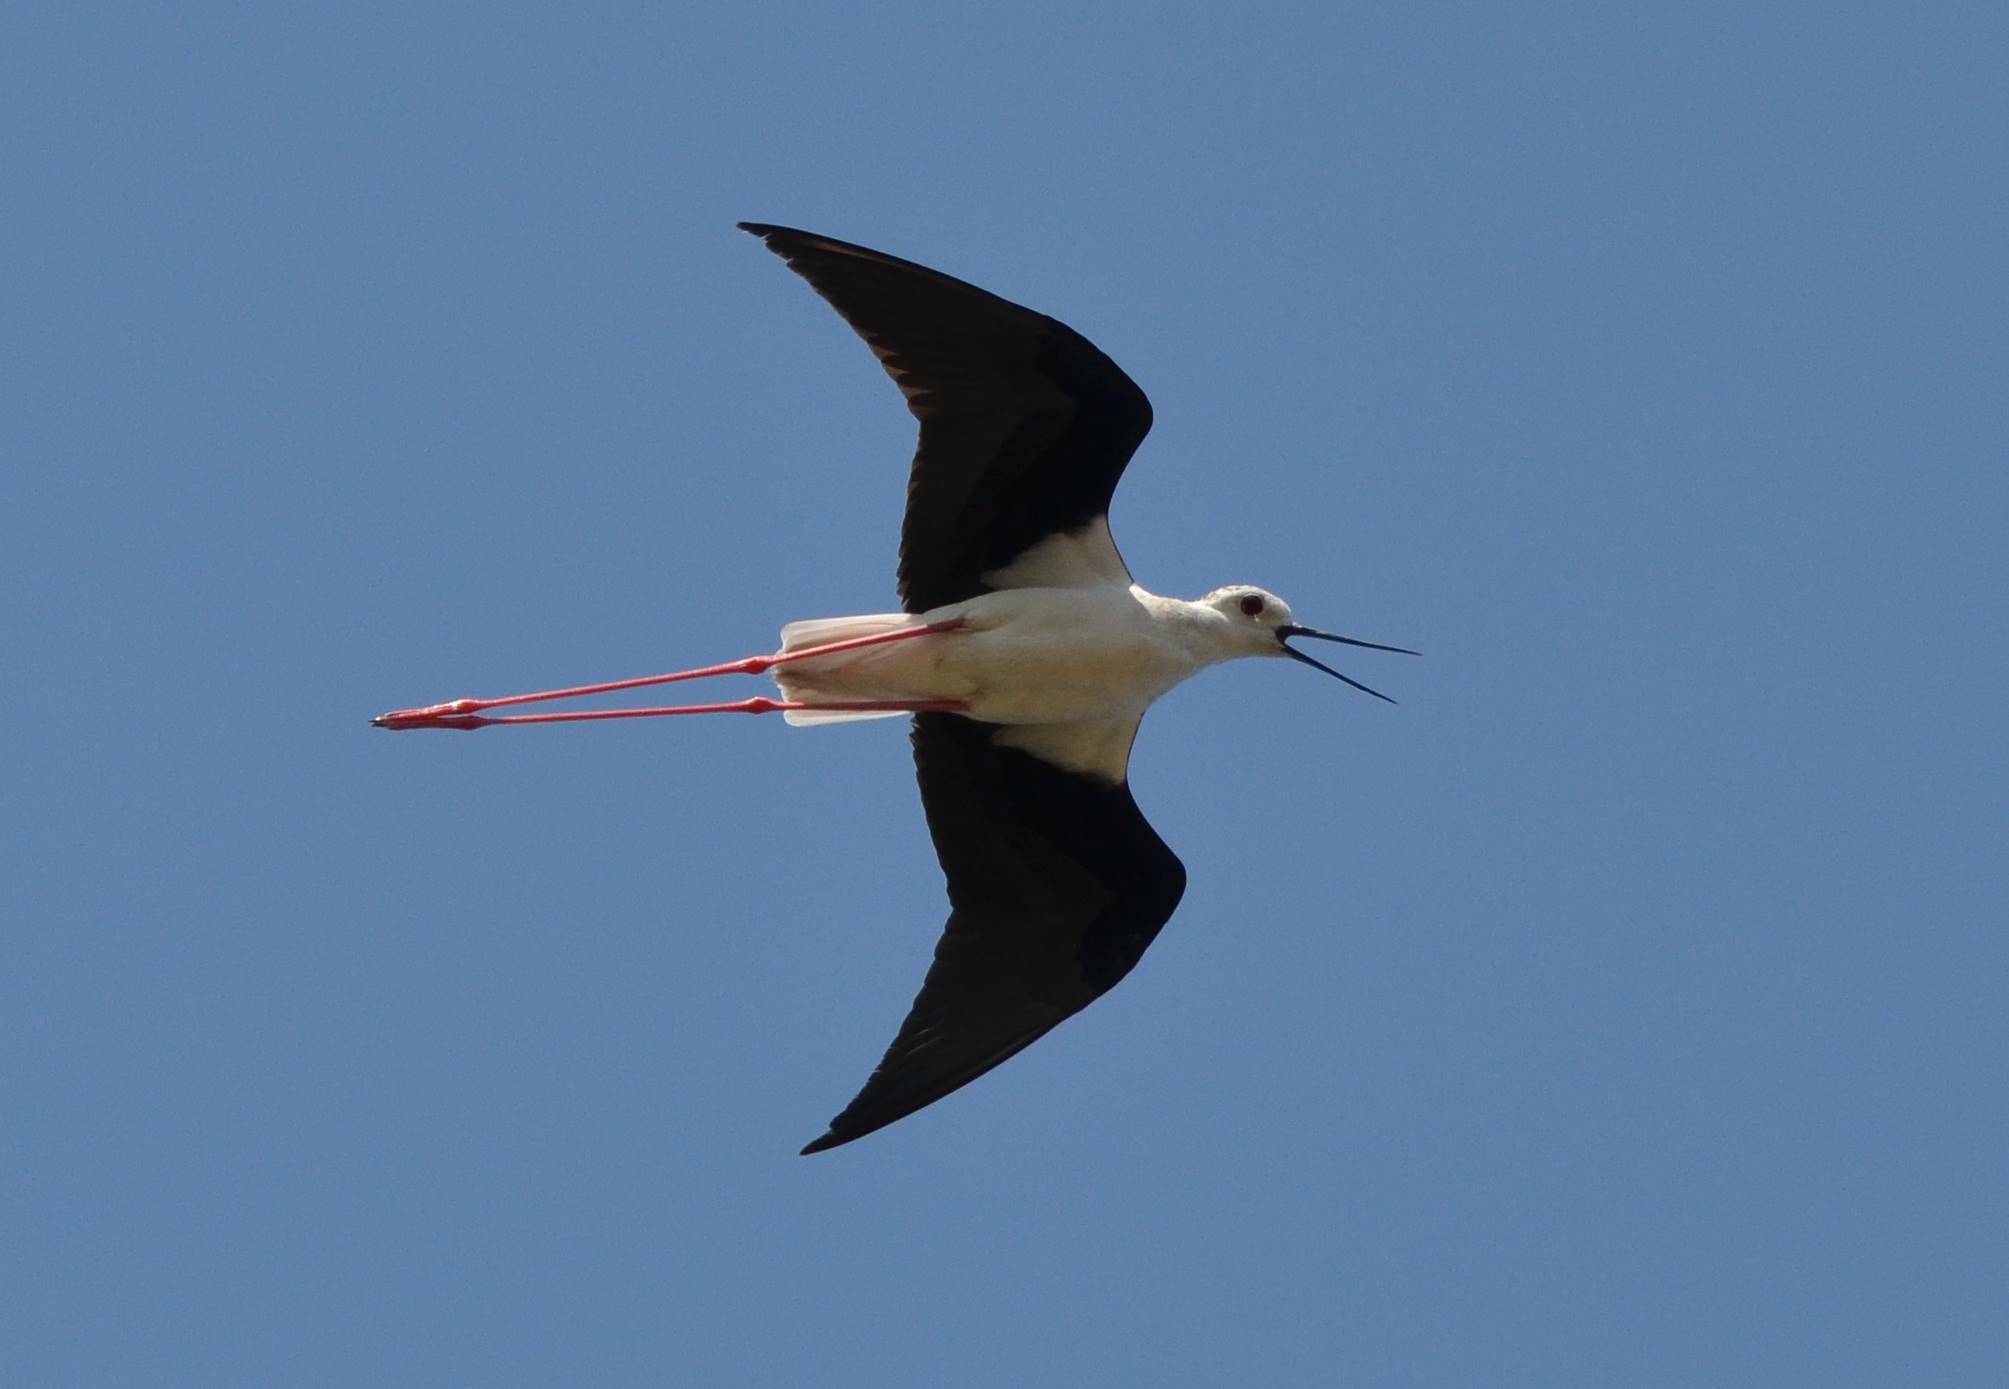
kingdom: Animalia
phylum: Chordata
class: Aves
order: Charadriiformes
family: Recurvirostridae
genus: Himantopus
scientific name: Himantopus himantopus
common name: Black-winged stilt
